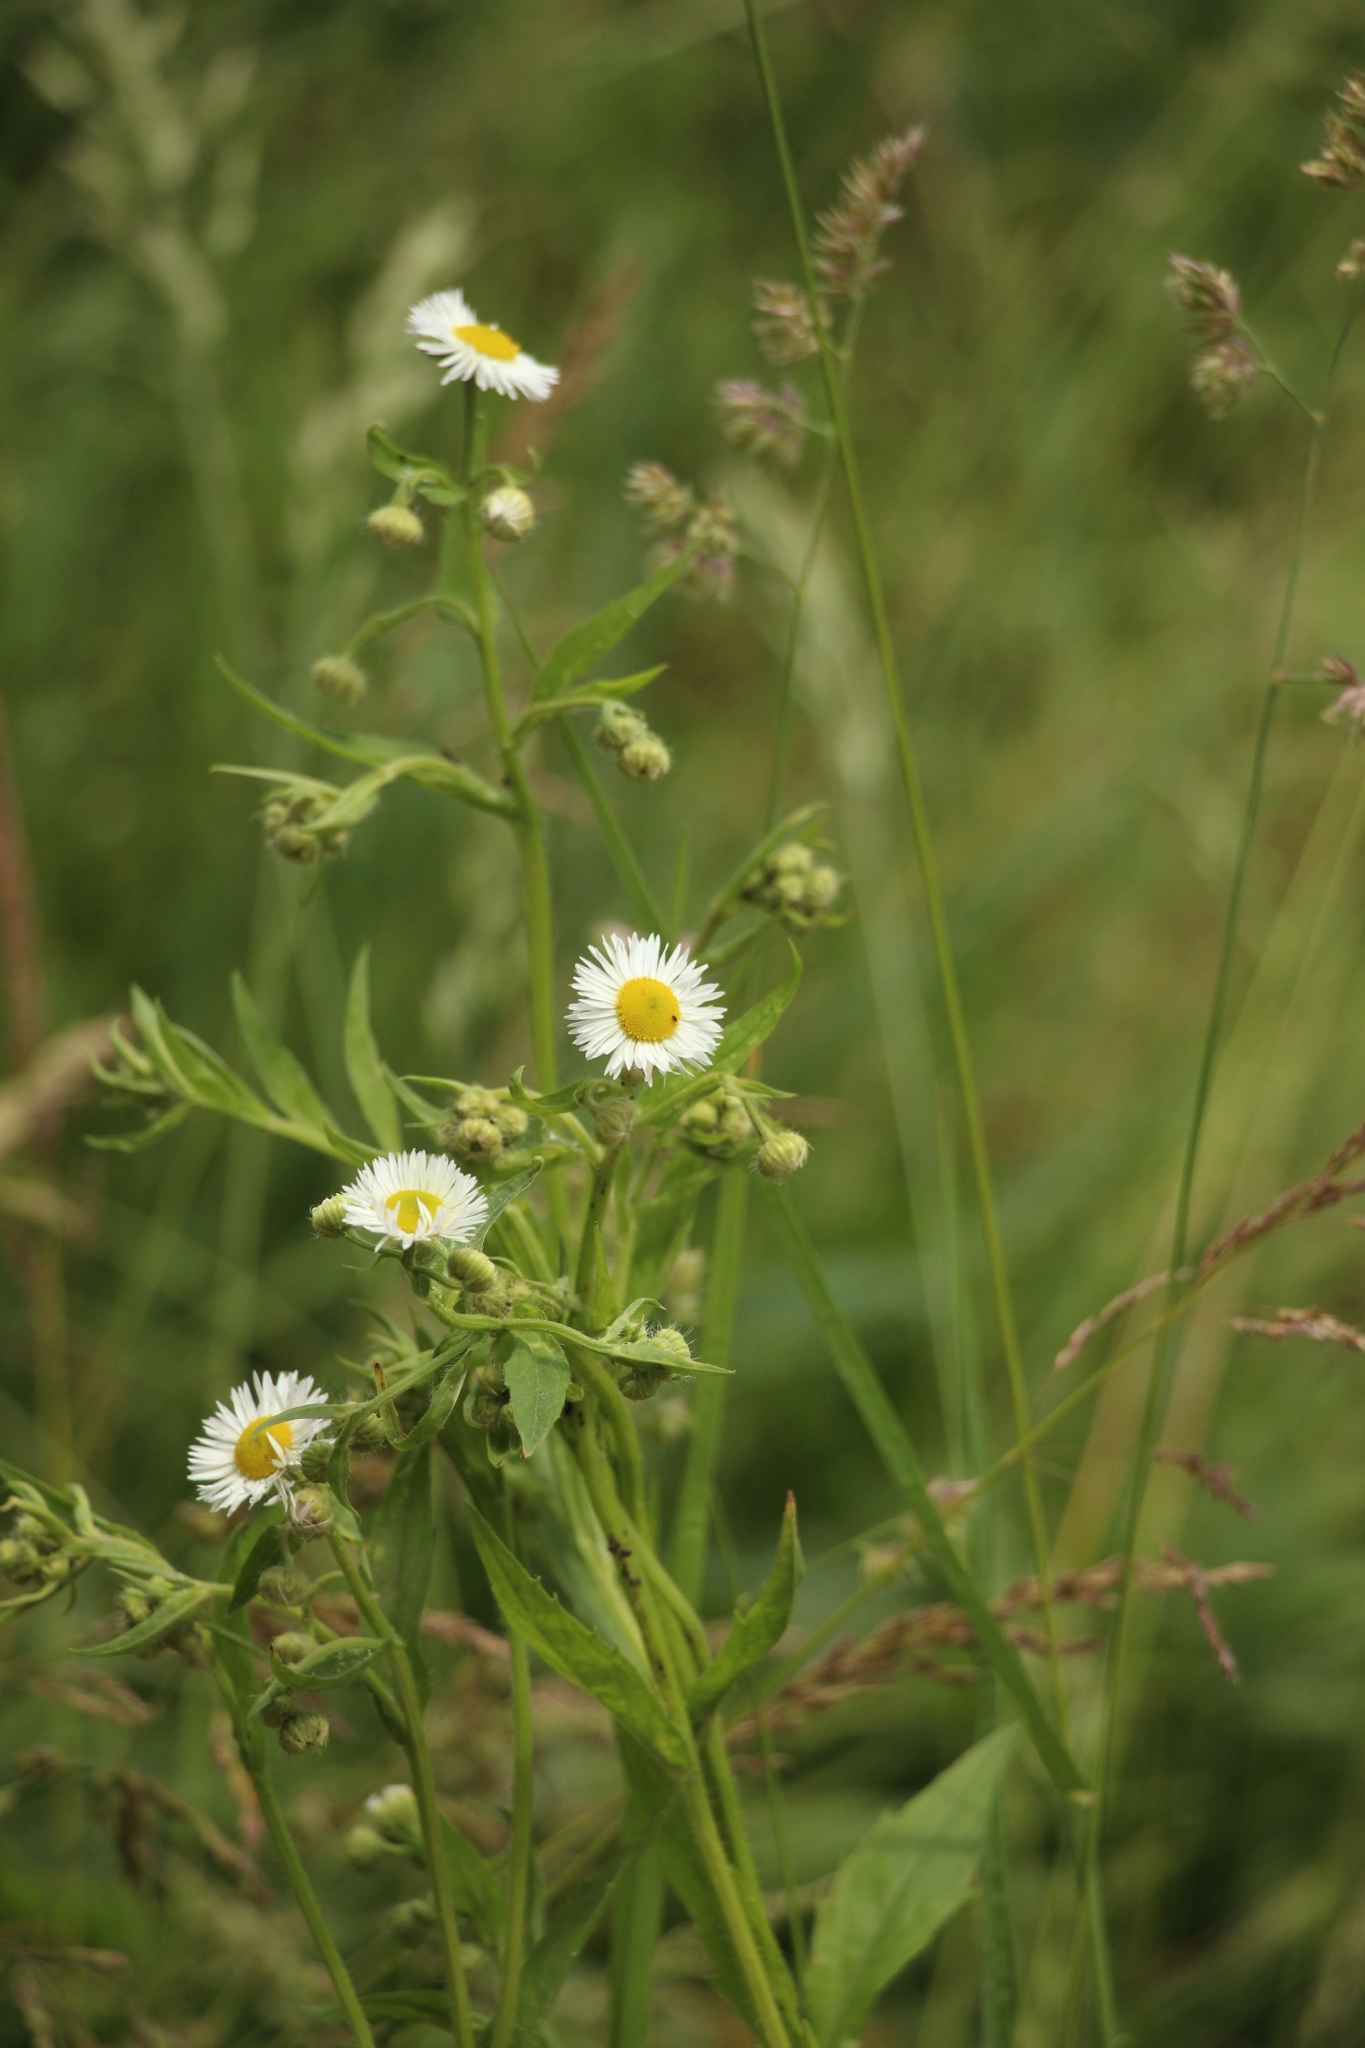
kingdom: Plantae
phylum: Tracheophyta
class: Magnoliopsida
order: Asterales
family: Asteraceae
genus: Erigeron
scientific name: Erigeron annuus
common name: Tall fleabane
